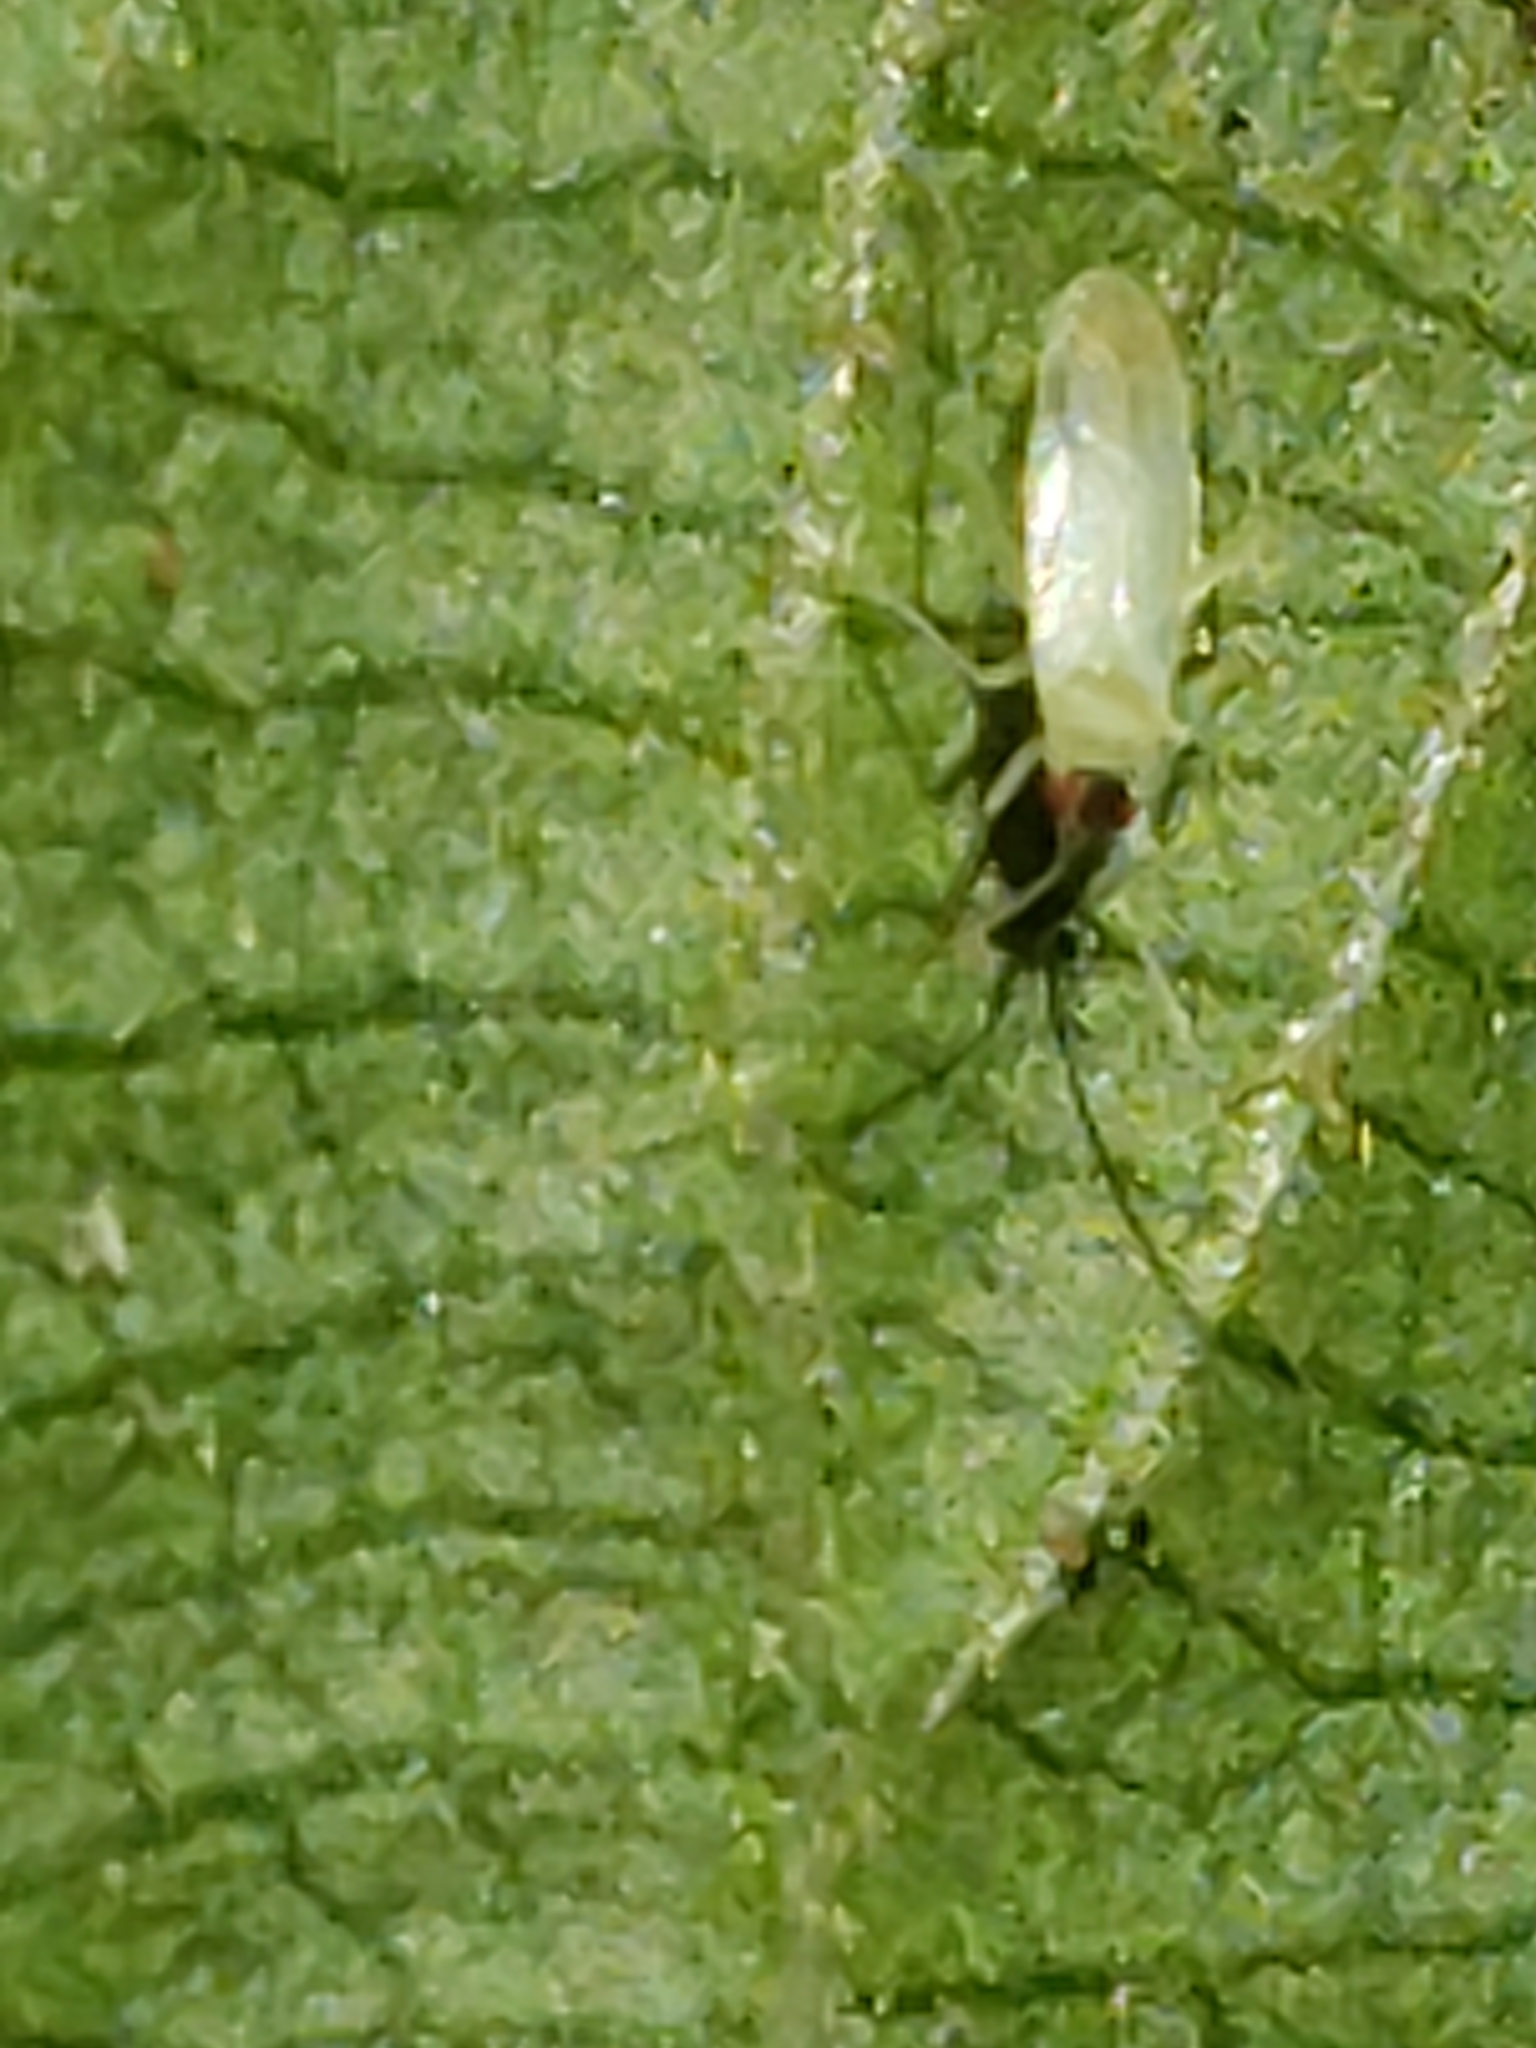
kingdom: Animalia
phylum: Arthropoda
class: Insecta
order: Hemiptera
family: Miridae
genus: Paraproba
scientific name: Paraproba capitata
